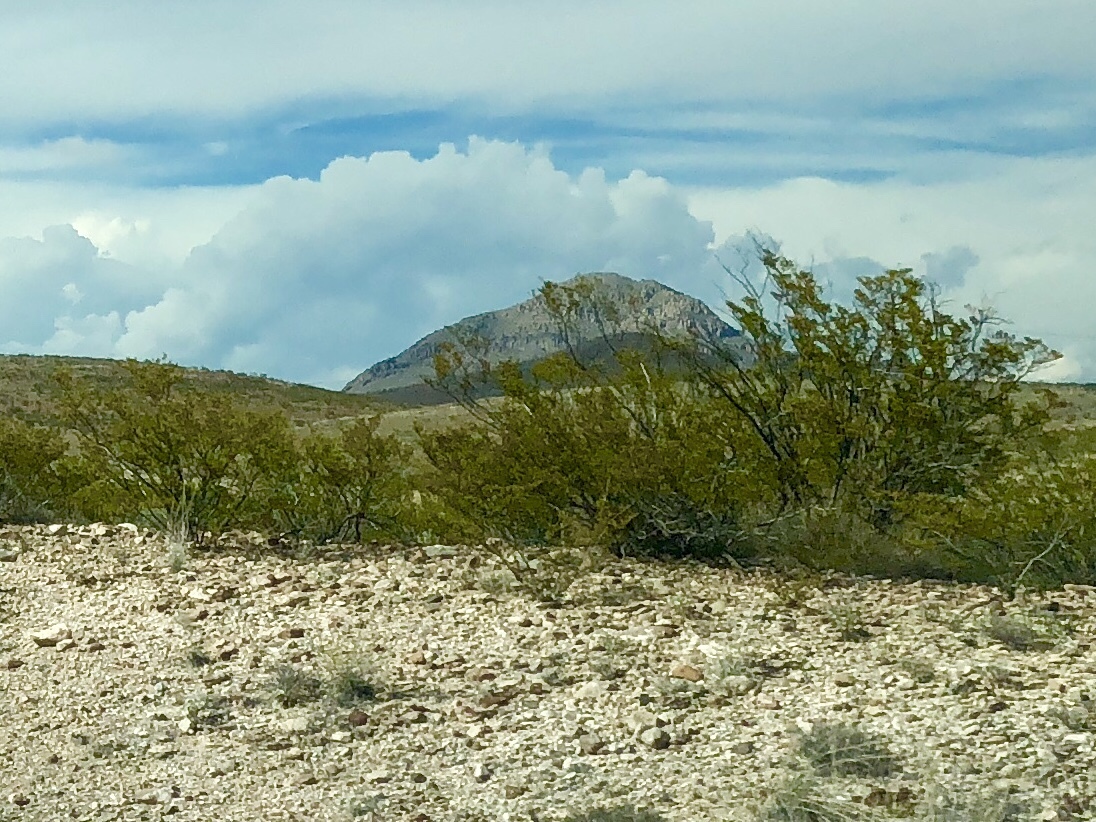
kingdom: Plantae
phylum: Tracheophyta
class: Magnoliopsida
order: Zygophyllales
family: Zygophyllaceae
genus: Larrea
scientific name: Larrea tridentata
